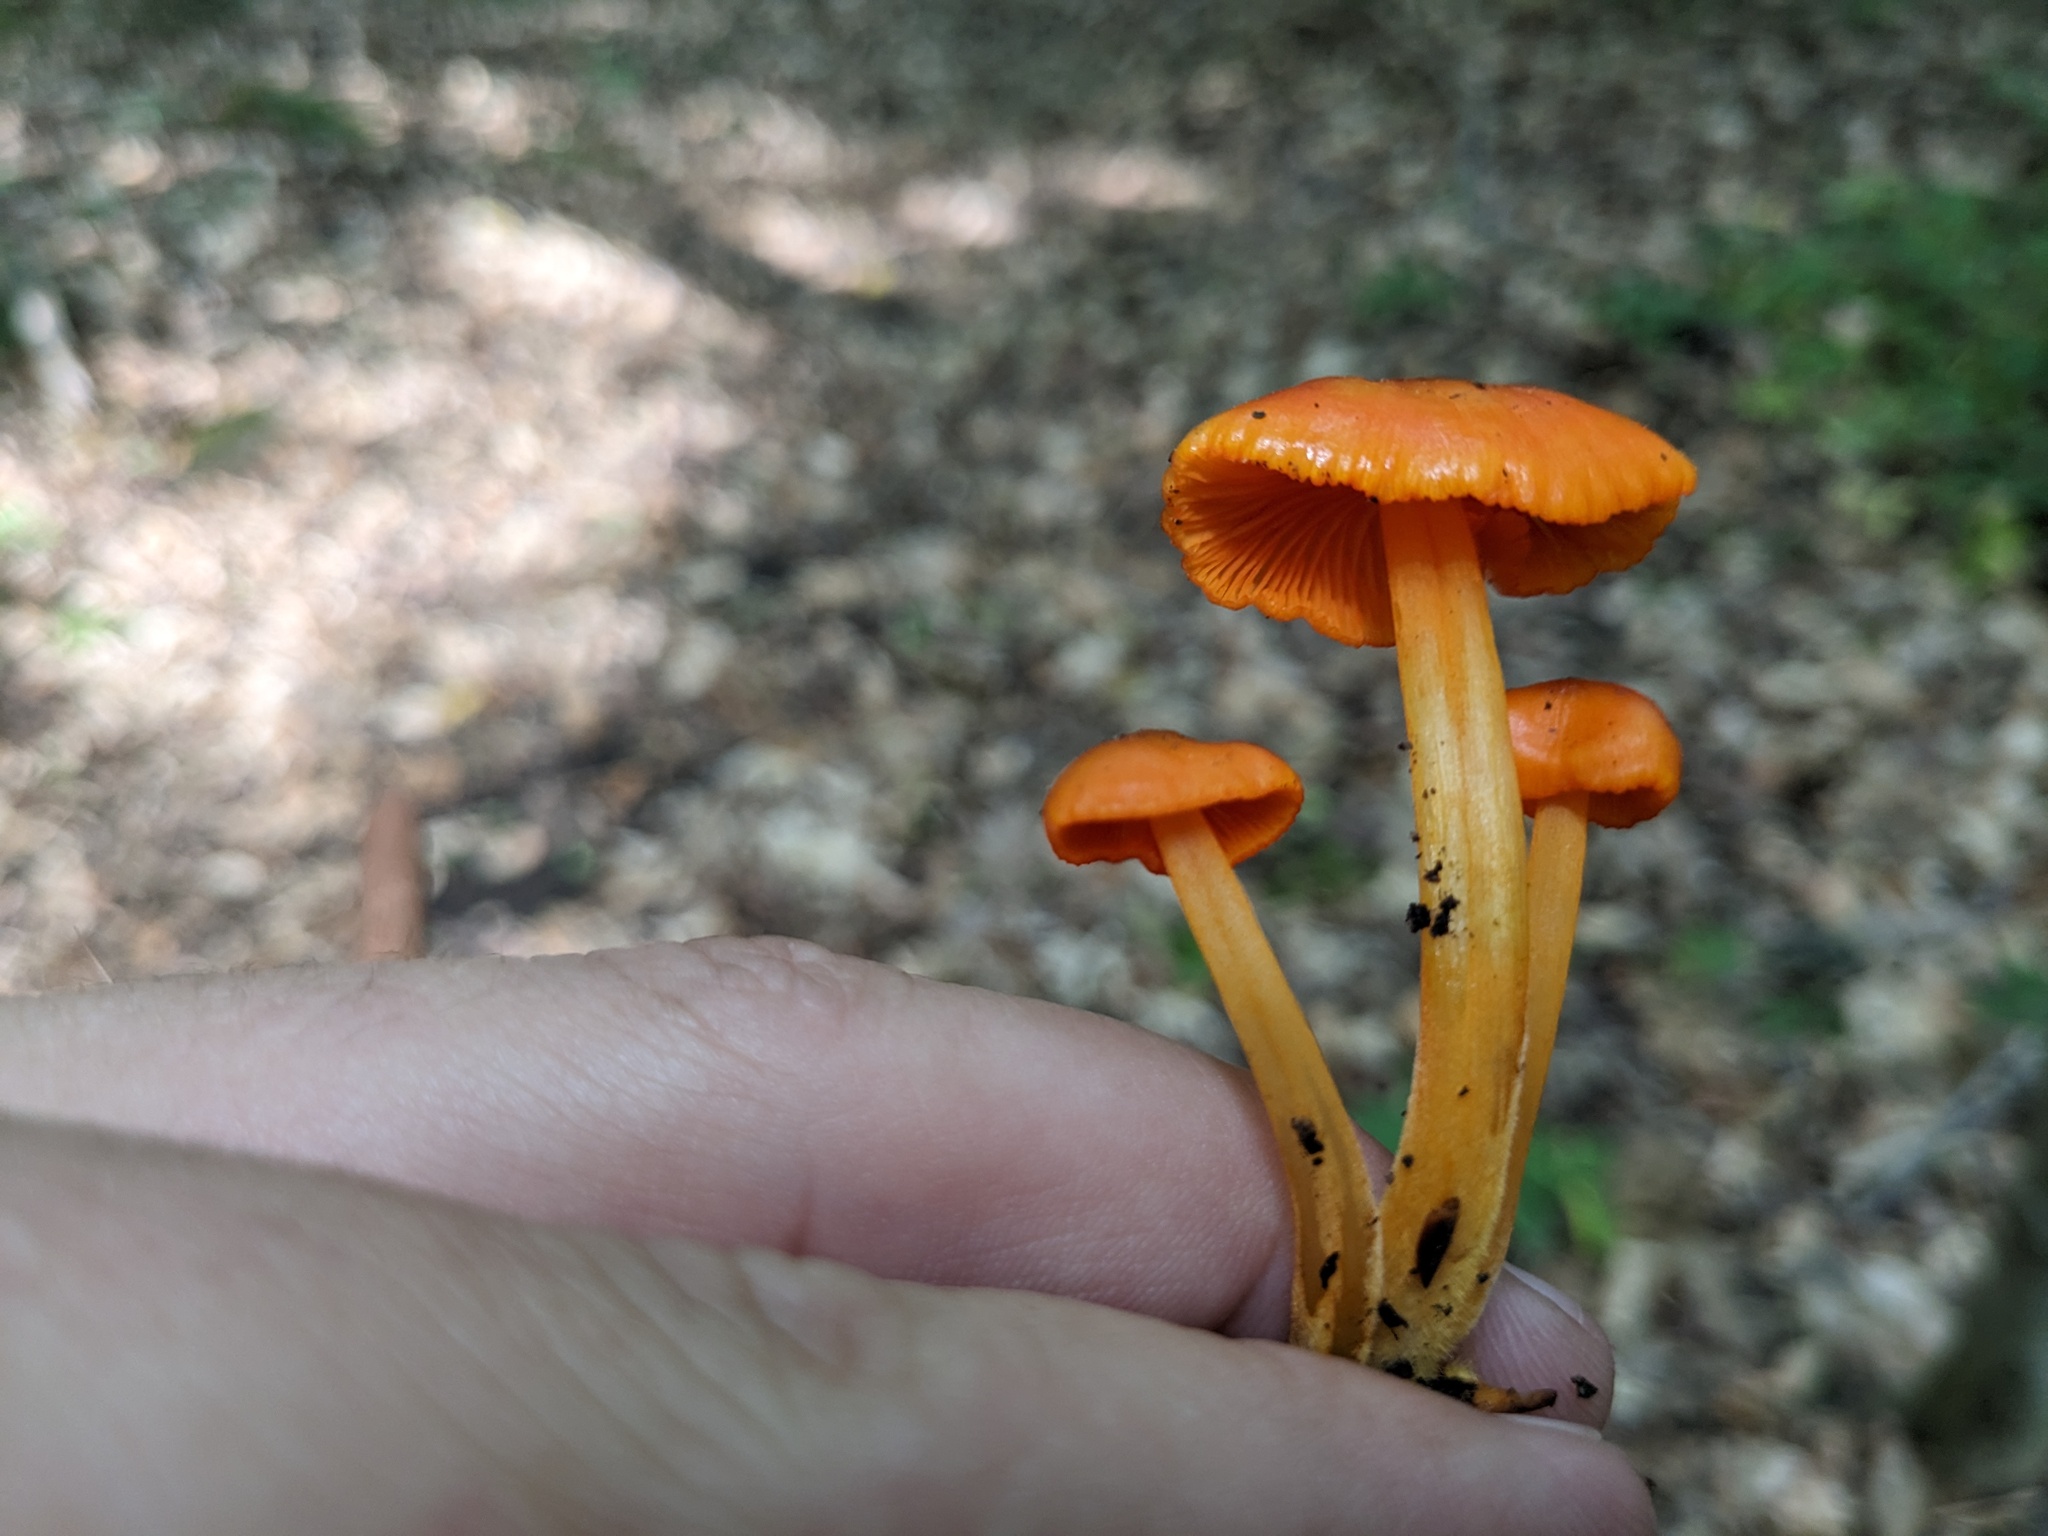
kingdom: Fungi
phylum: Basidiomycota
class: Agaricomycetes
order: Agaricales
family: Hygrophoraceae
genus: Humidicutis
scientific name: Humidicutis marginata
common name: Orange gilled waxcap
